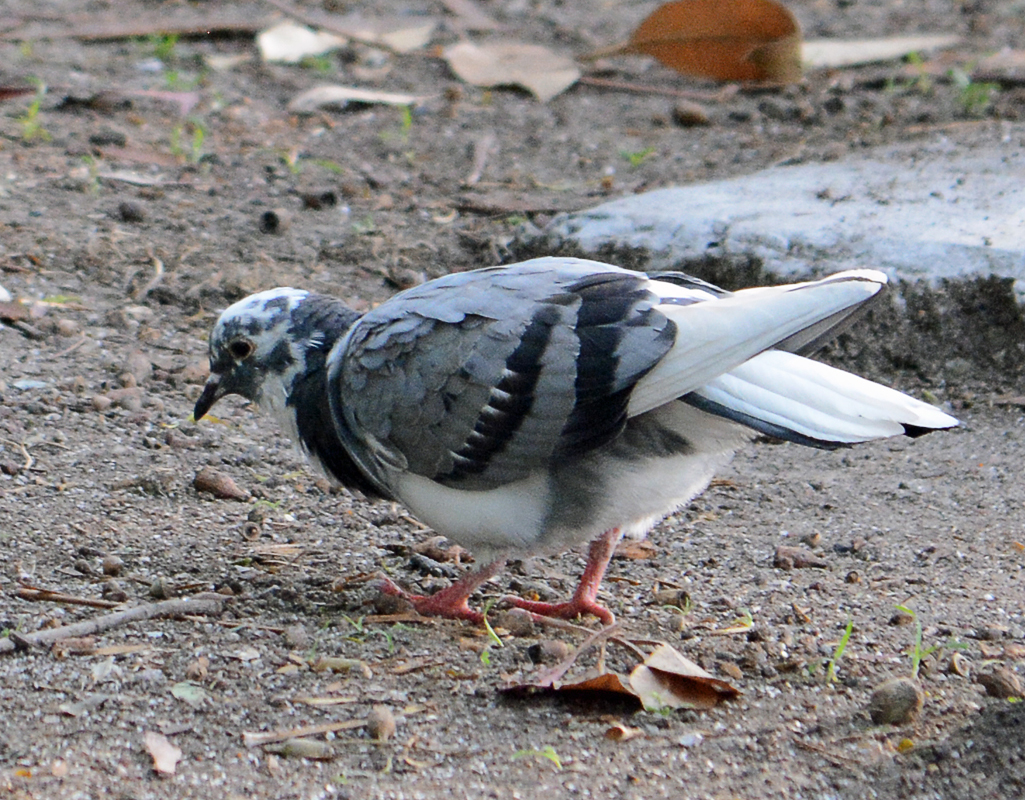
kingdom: Animalia
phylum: Chordata
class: Aves
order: Columbiformes
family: Columbidae
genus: Columba
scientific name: Columba livia
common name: Rock pigeon
